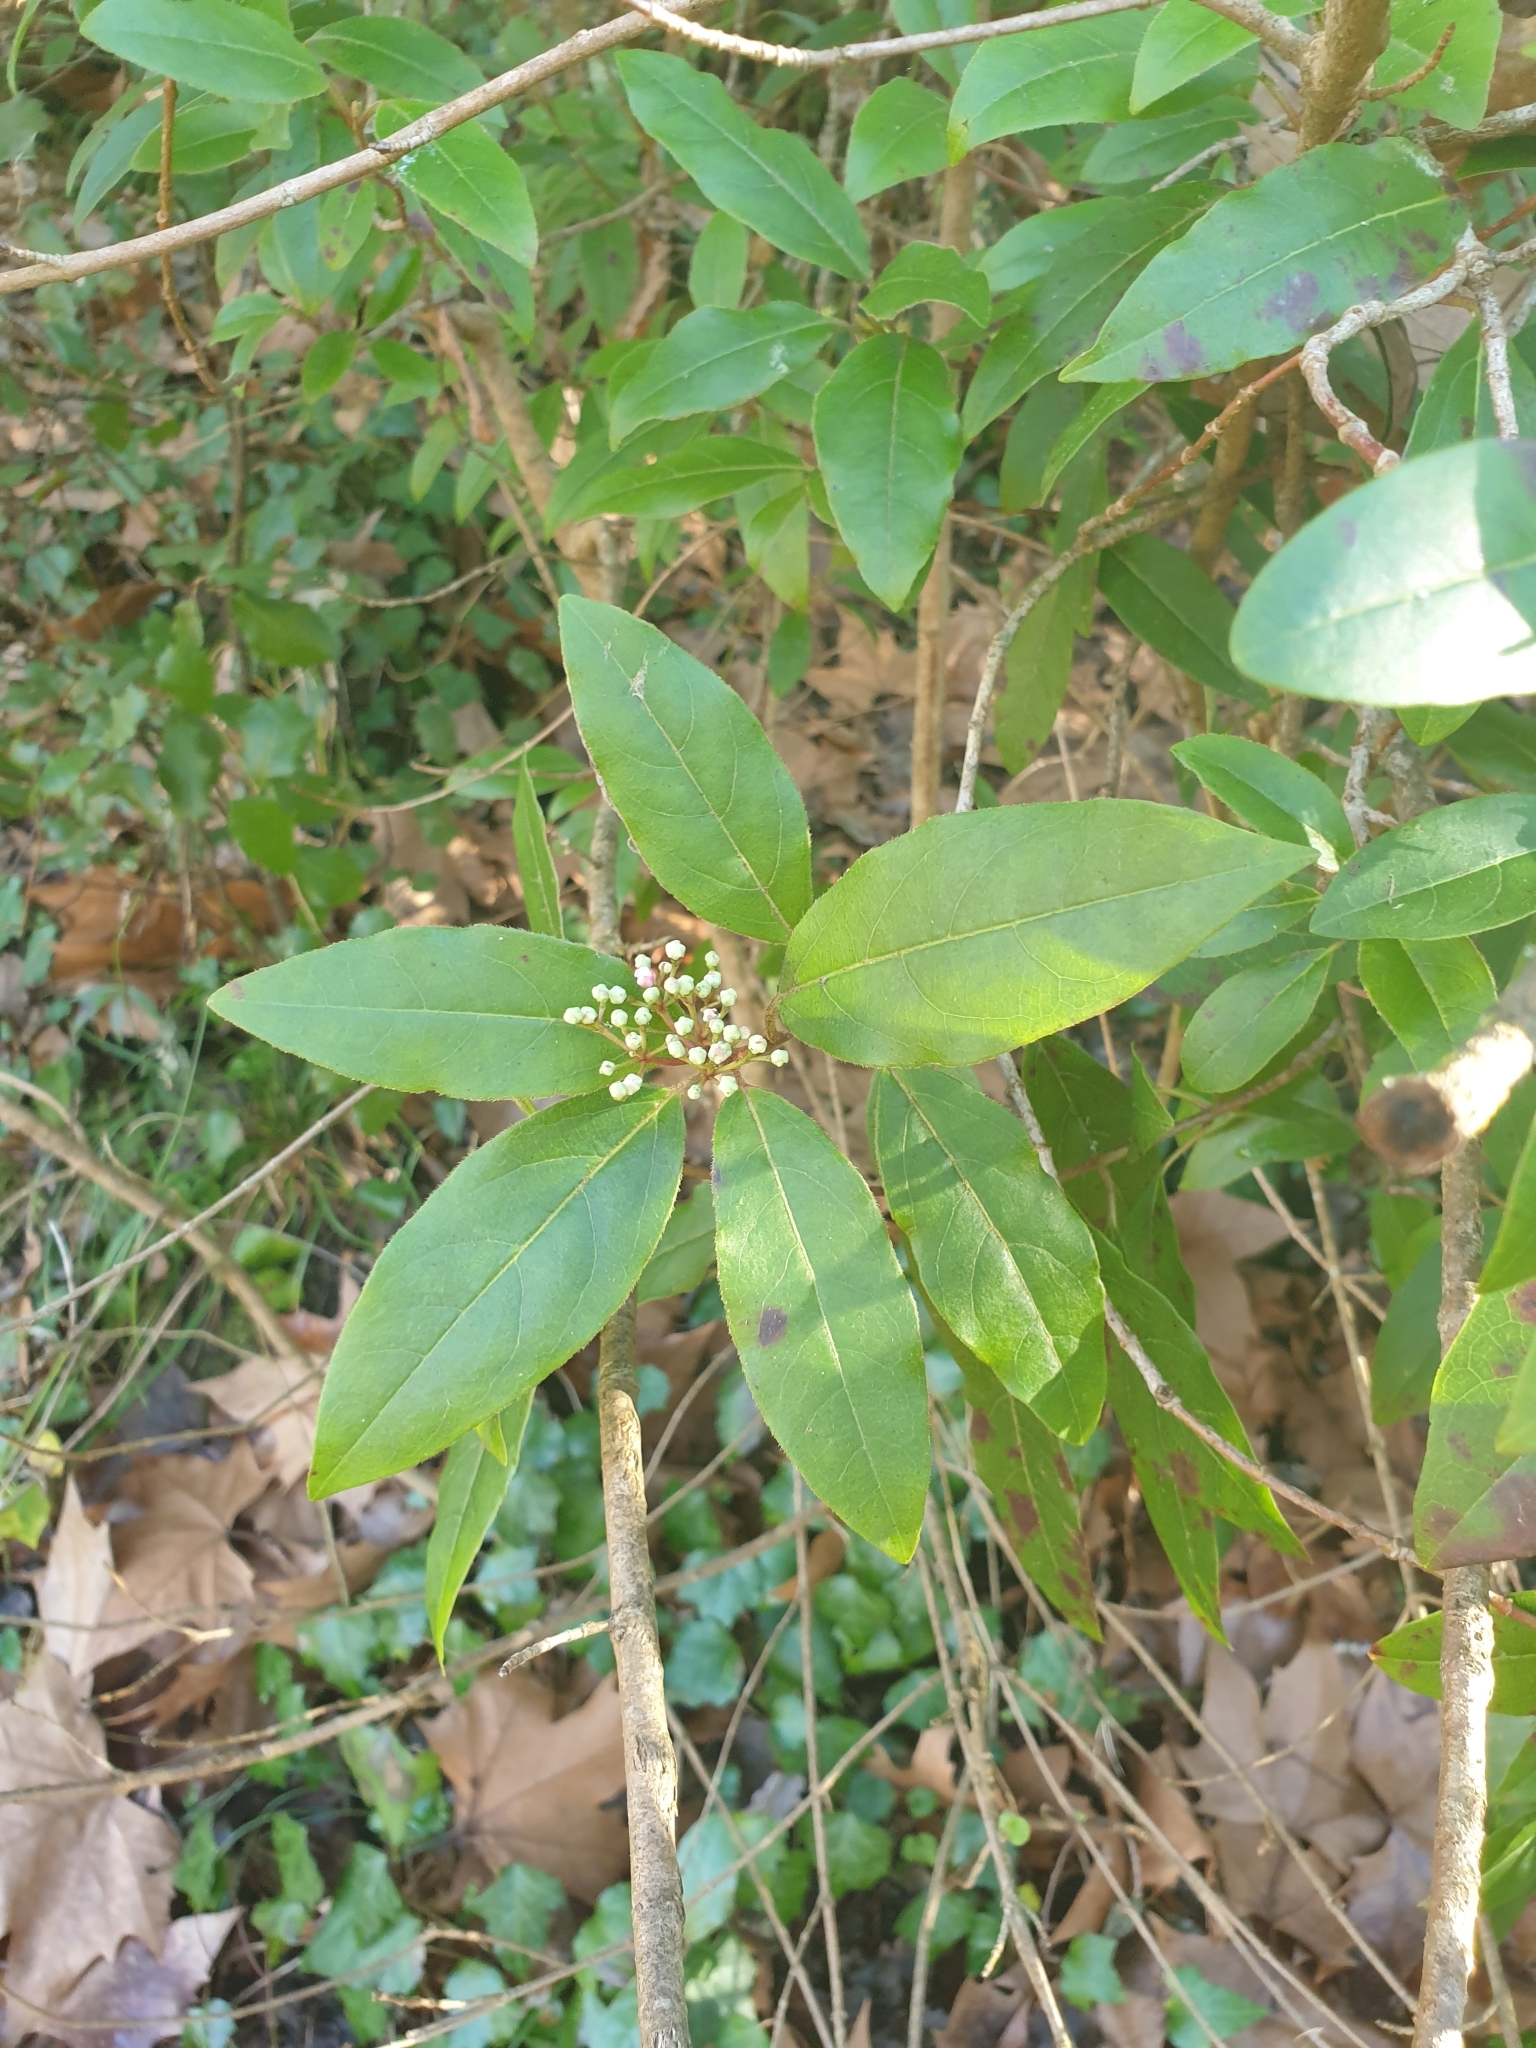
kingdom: Plantae
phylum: Tracheophyta
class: Magnoliopsida
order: Dipsacales
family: Viburnaceae
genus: Viburnum
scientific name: Viburnum tinus
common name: Laurustinus
